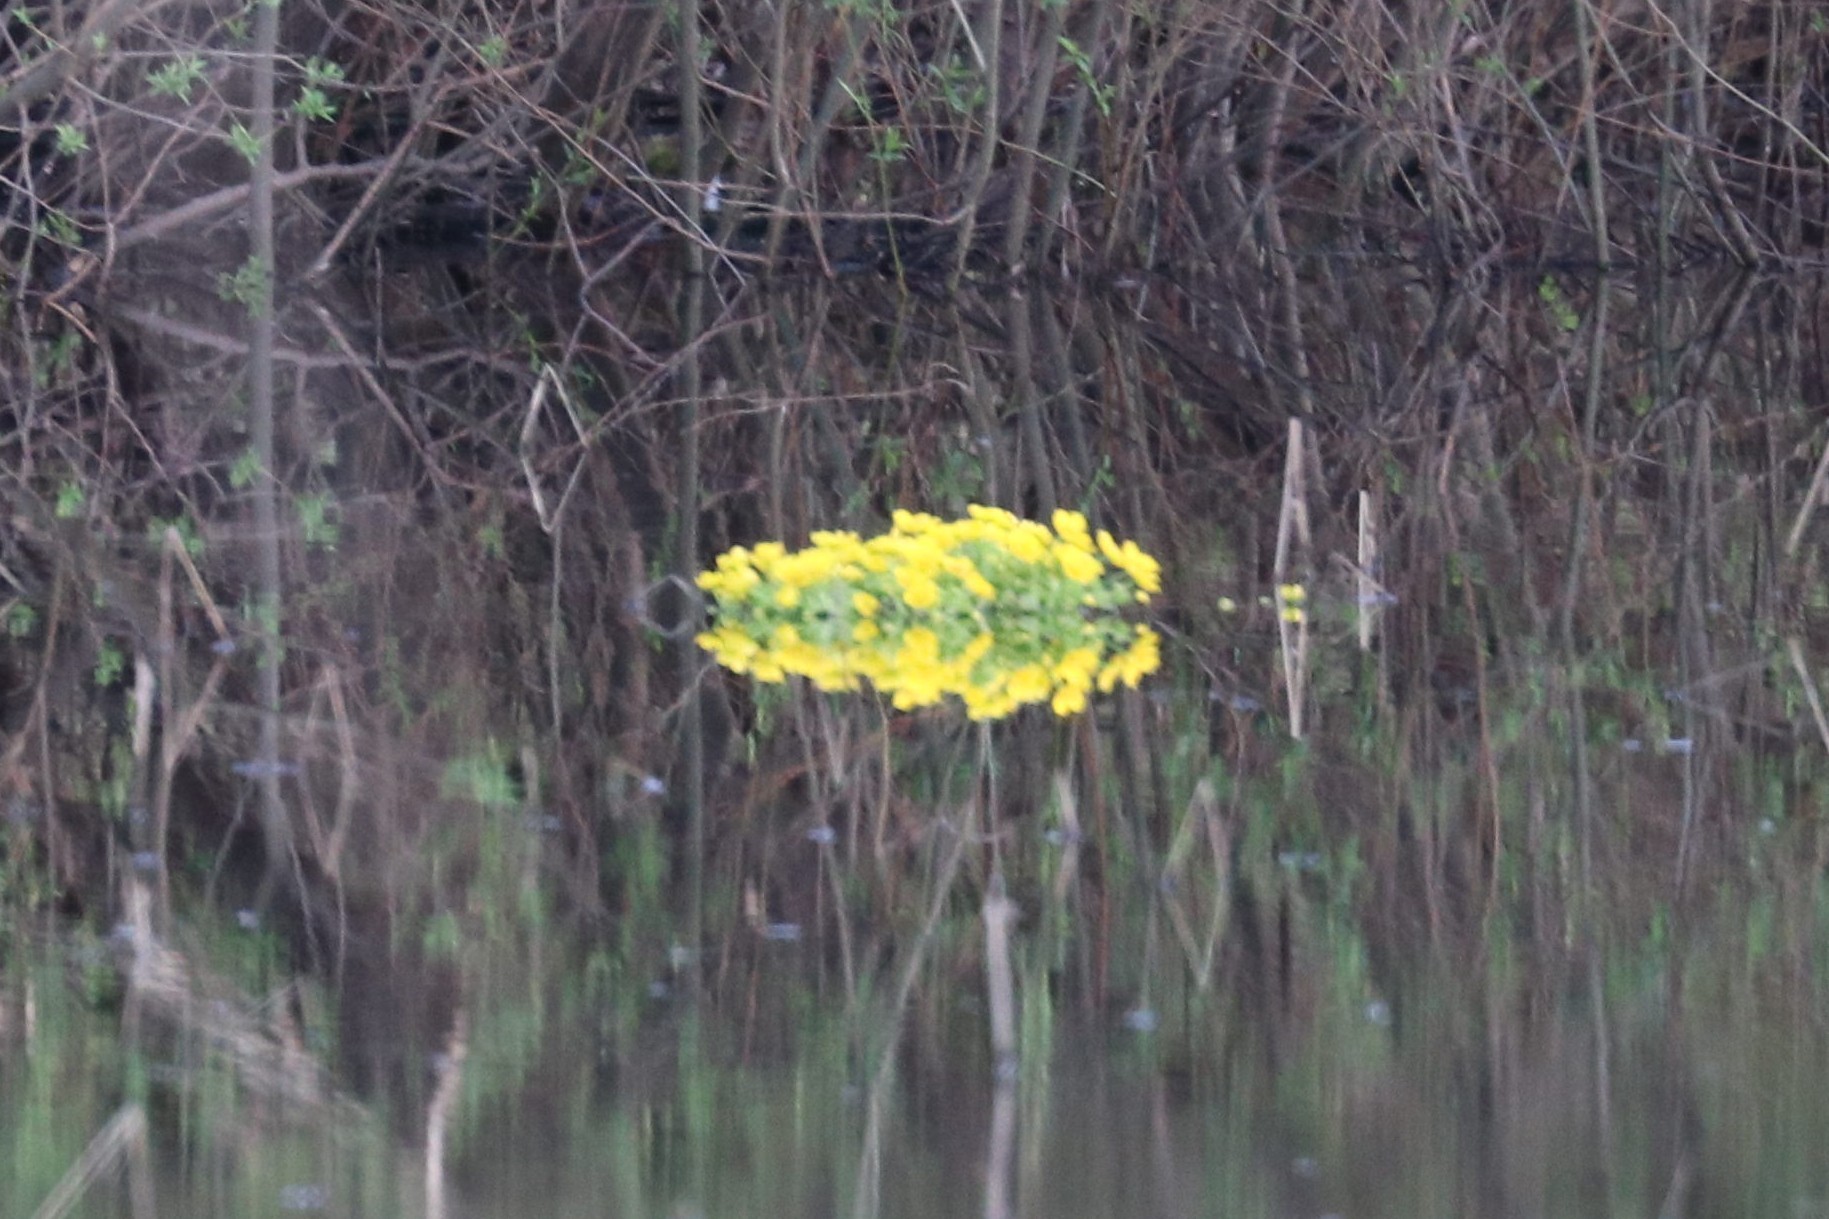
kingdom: Plantae
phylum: Tracheophyta
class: Magnoliopsida
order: Ranunculales
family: Ranunculaceae
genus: Caltha
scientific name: Caltha palustris
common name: Marsh marigold
